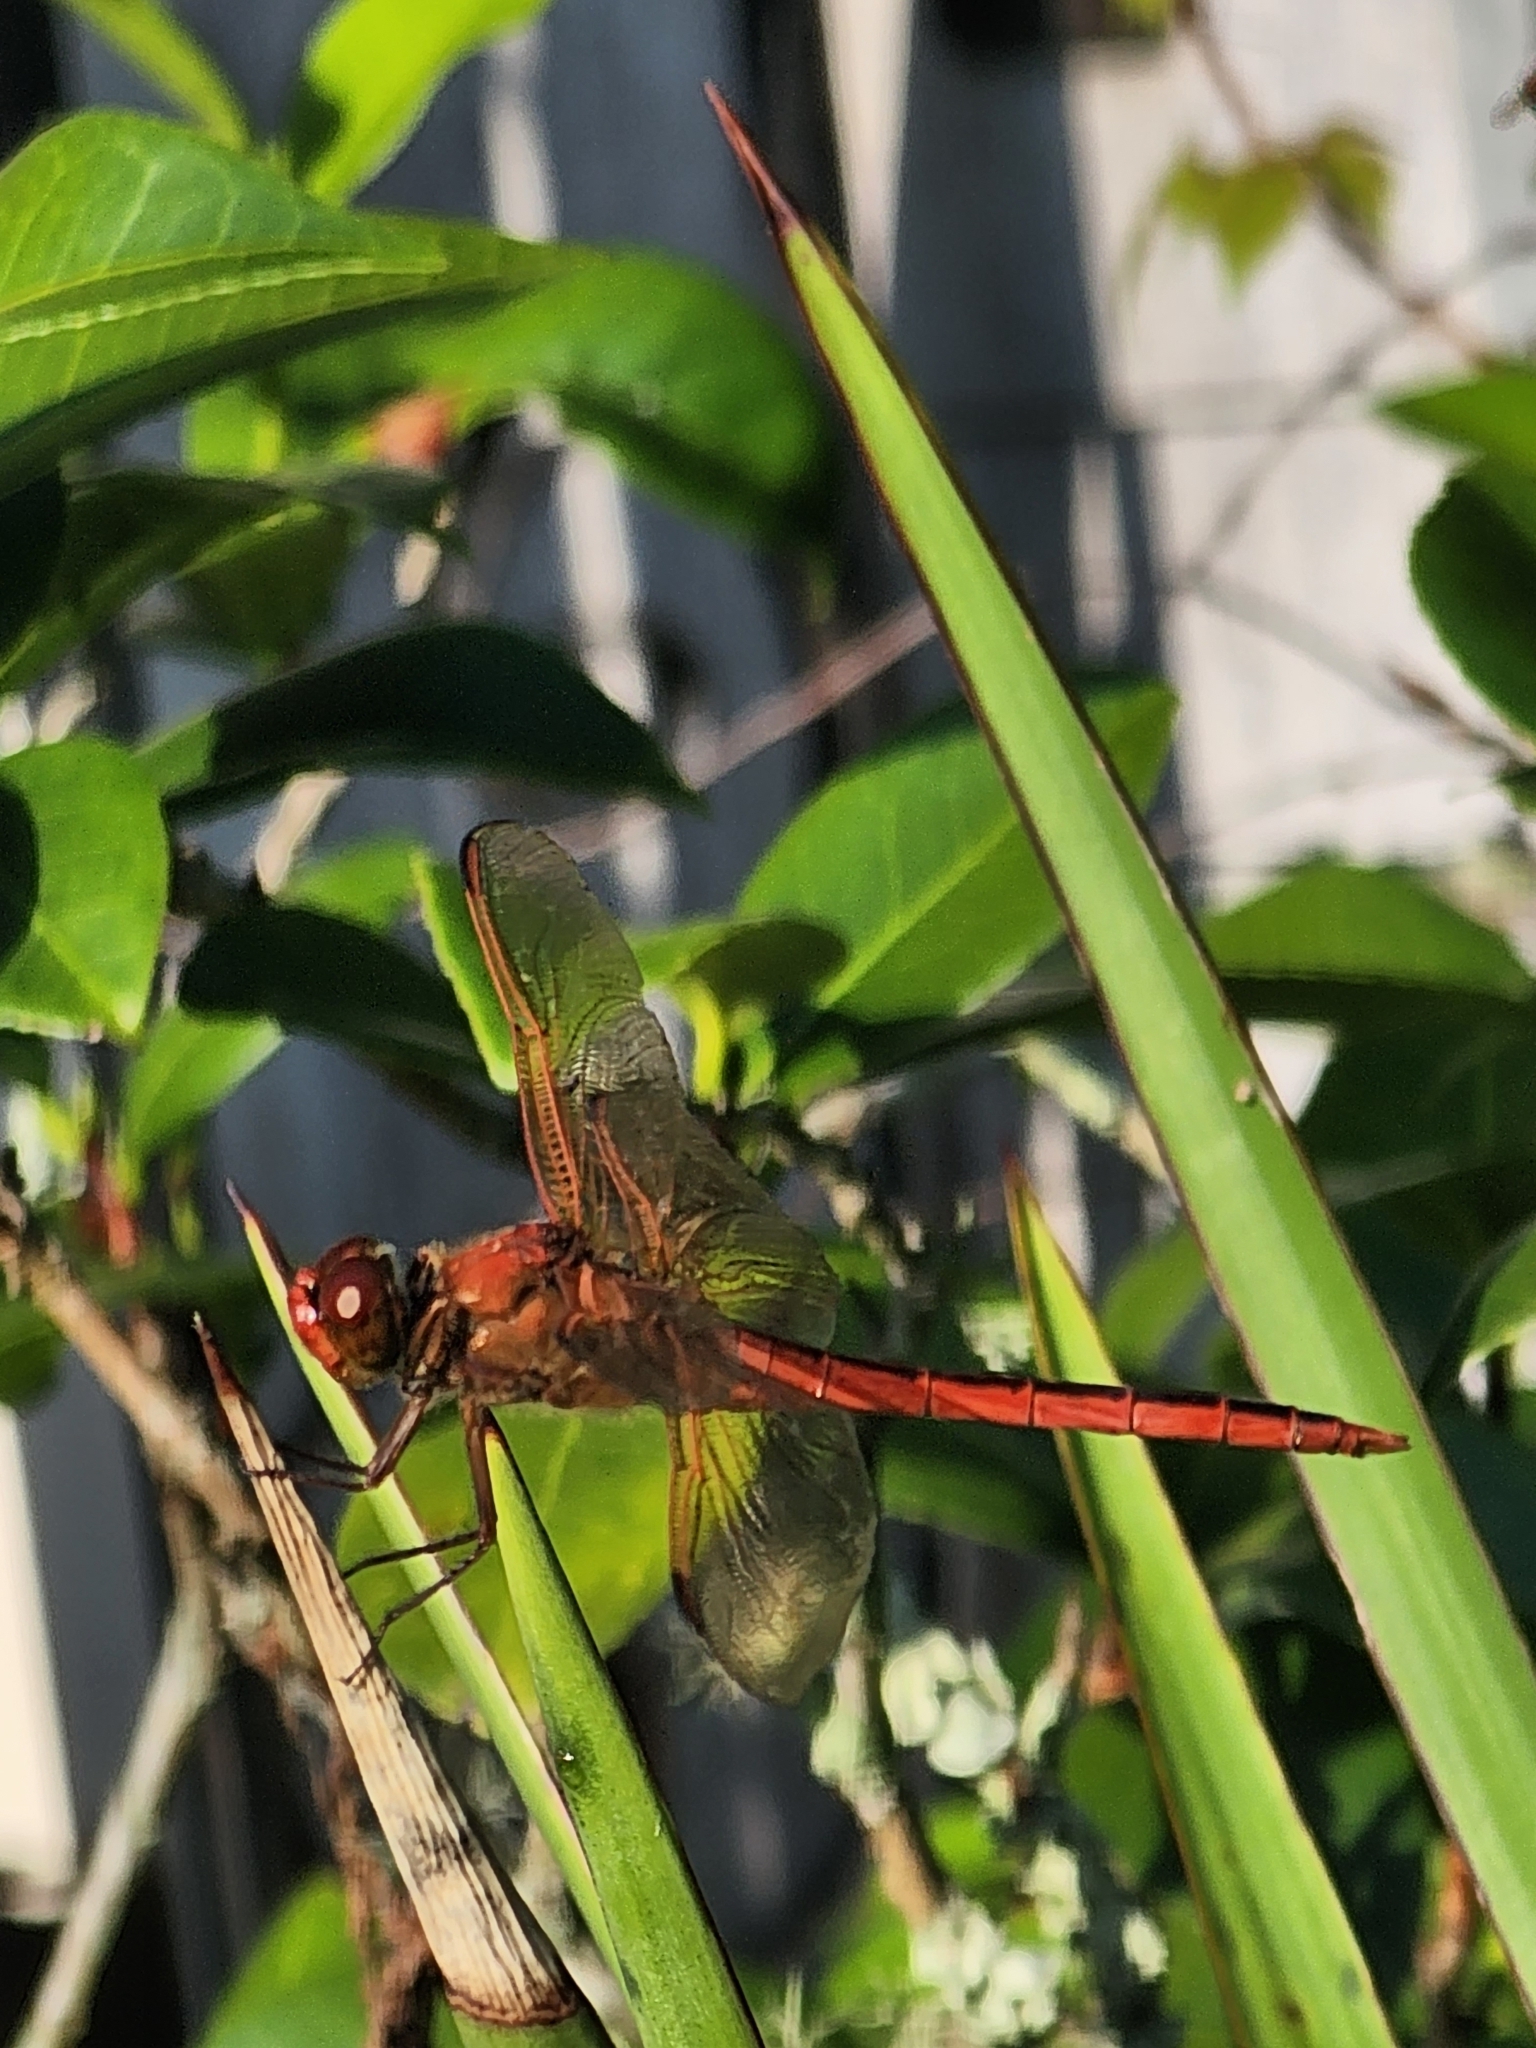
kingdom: Animalia
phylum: Arthropoda
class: Insecta
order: Odonata
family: Libellulidae
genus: Libellula
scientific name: Libellula needhami
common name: Needham's skimmer
